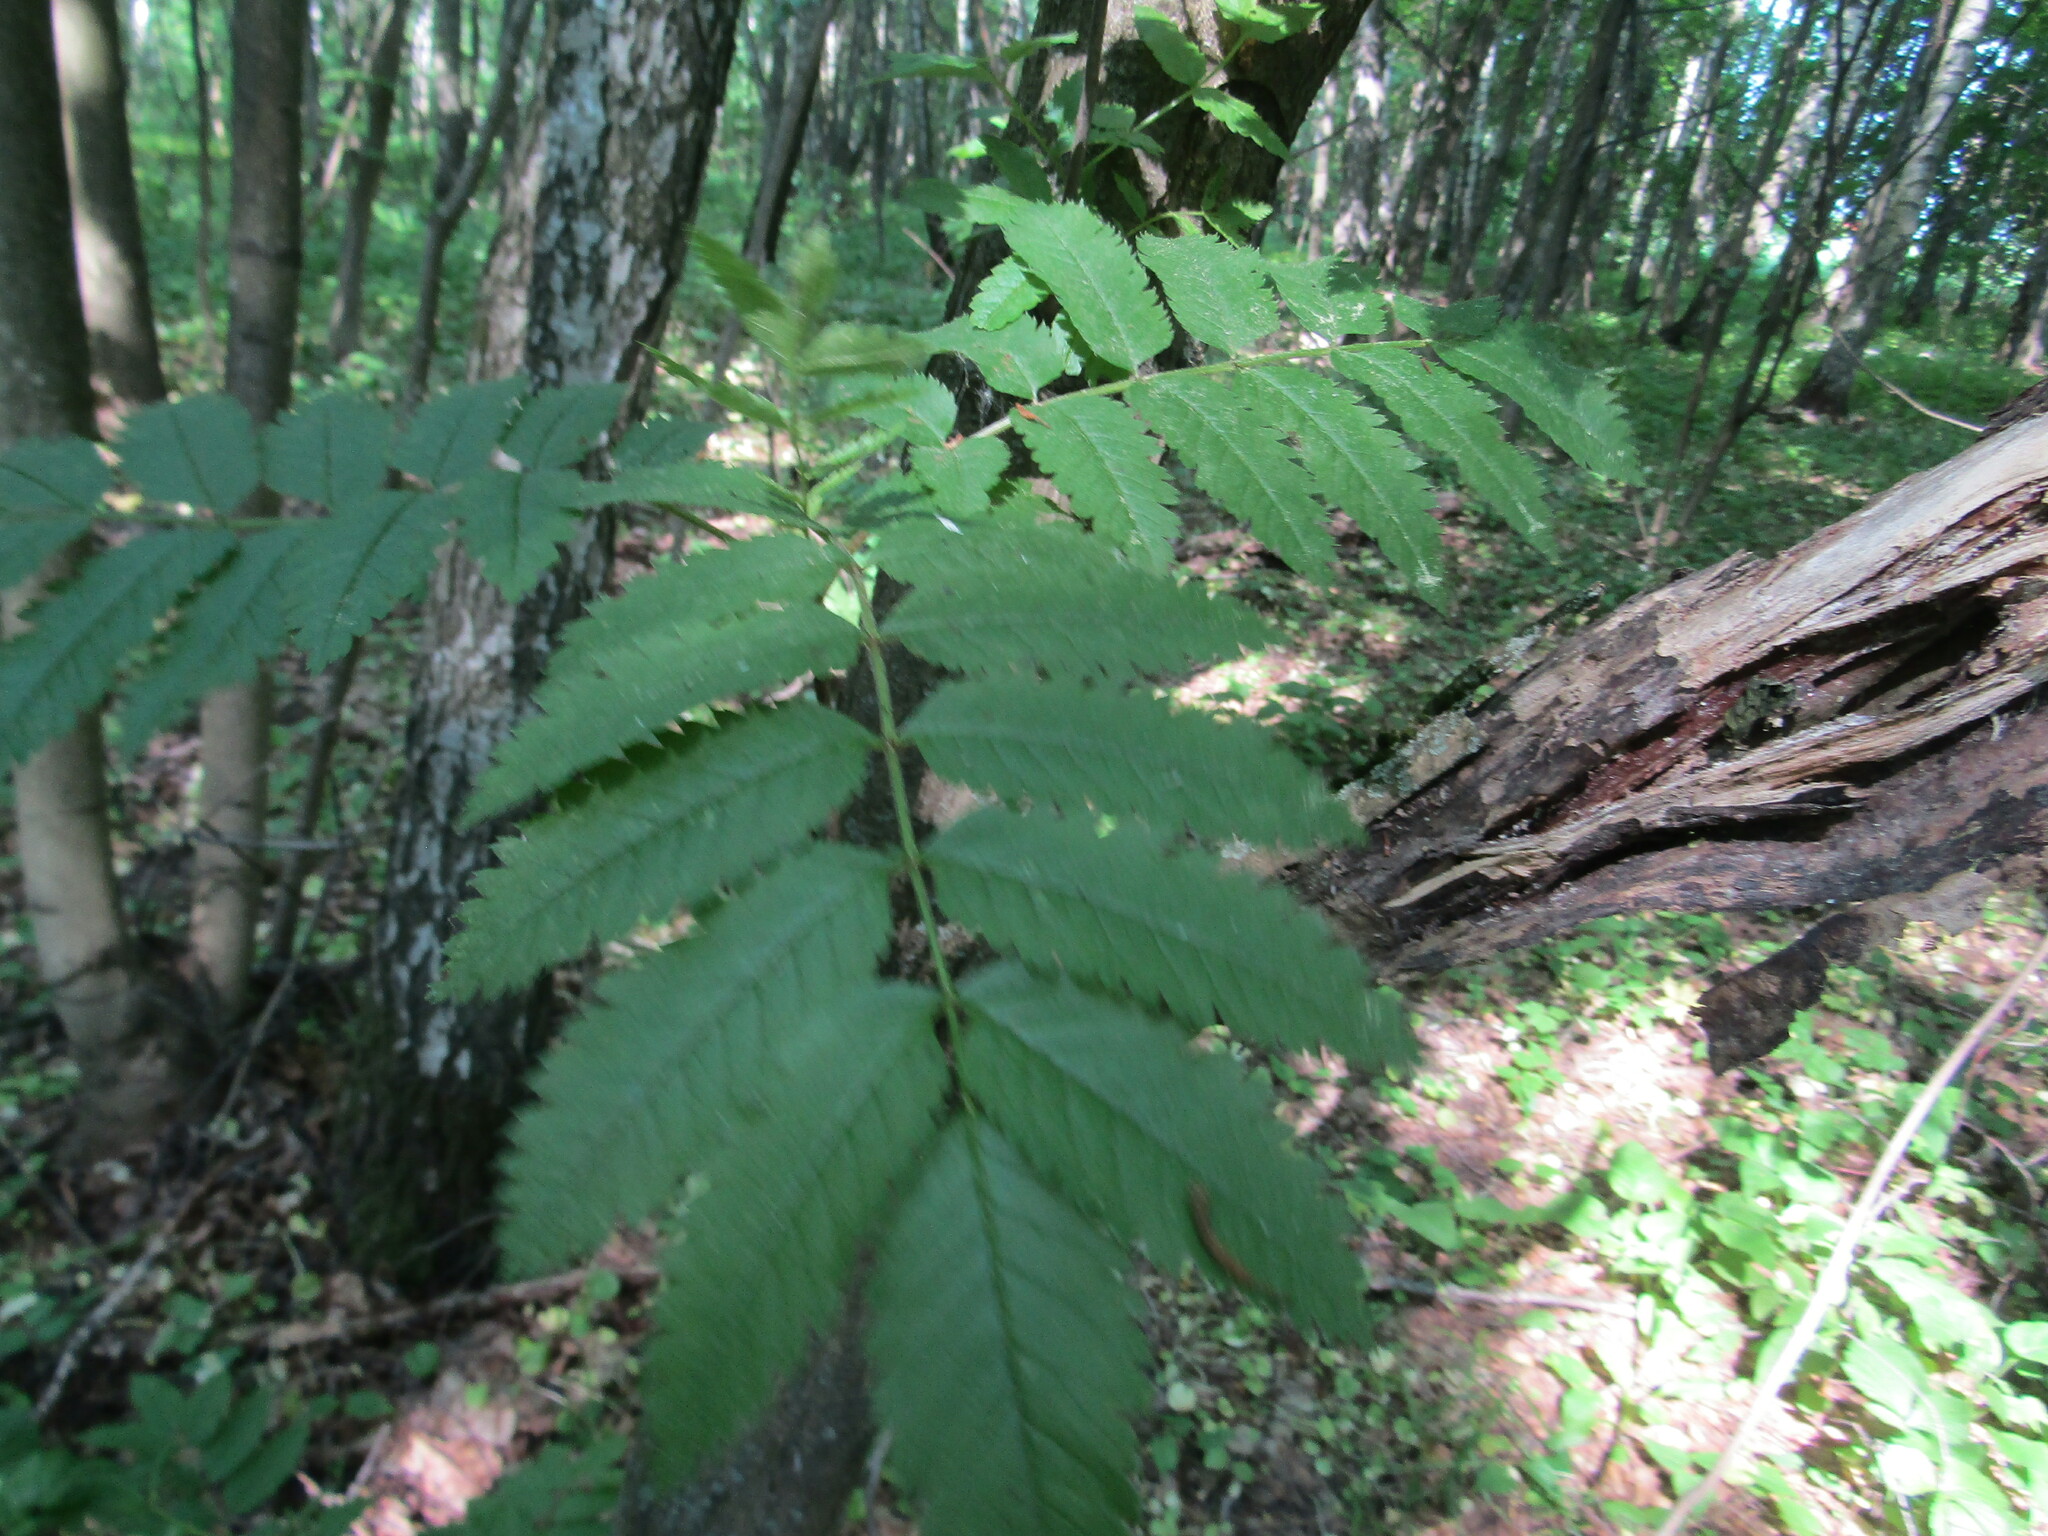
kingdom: Plantae
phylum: Tracheophyta
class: Magnoliopsida
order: Rosales
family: Rosaceae
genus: Sorbus
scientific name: Sorbus aucuparia
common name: Rowan
